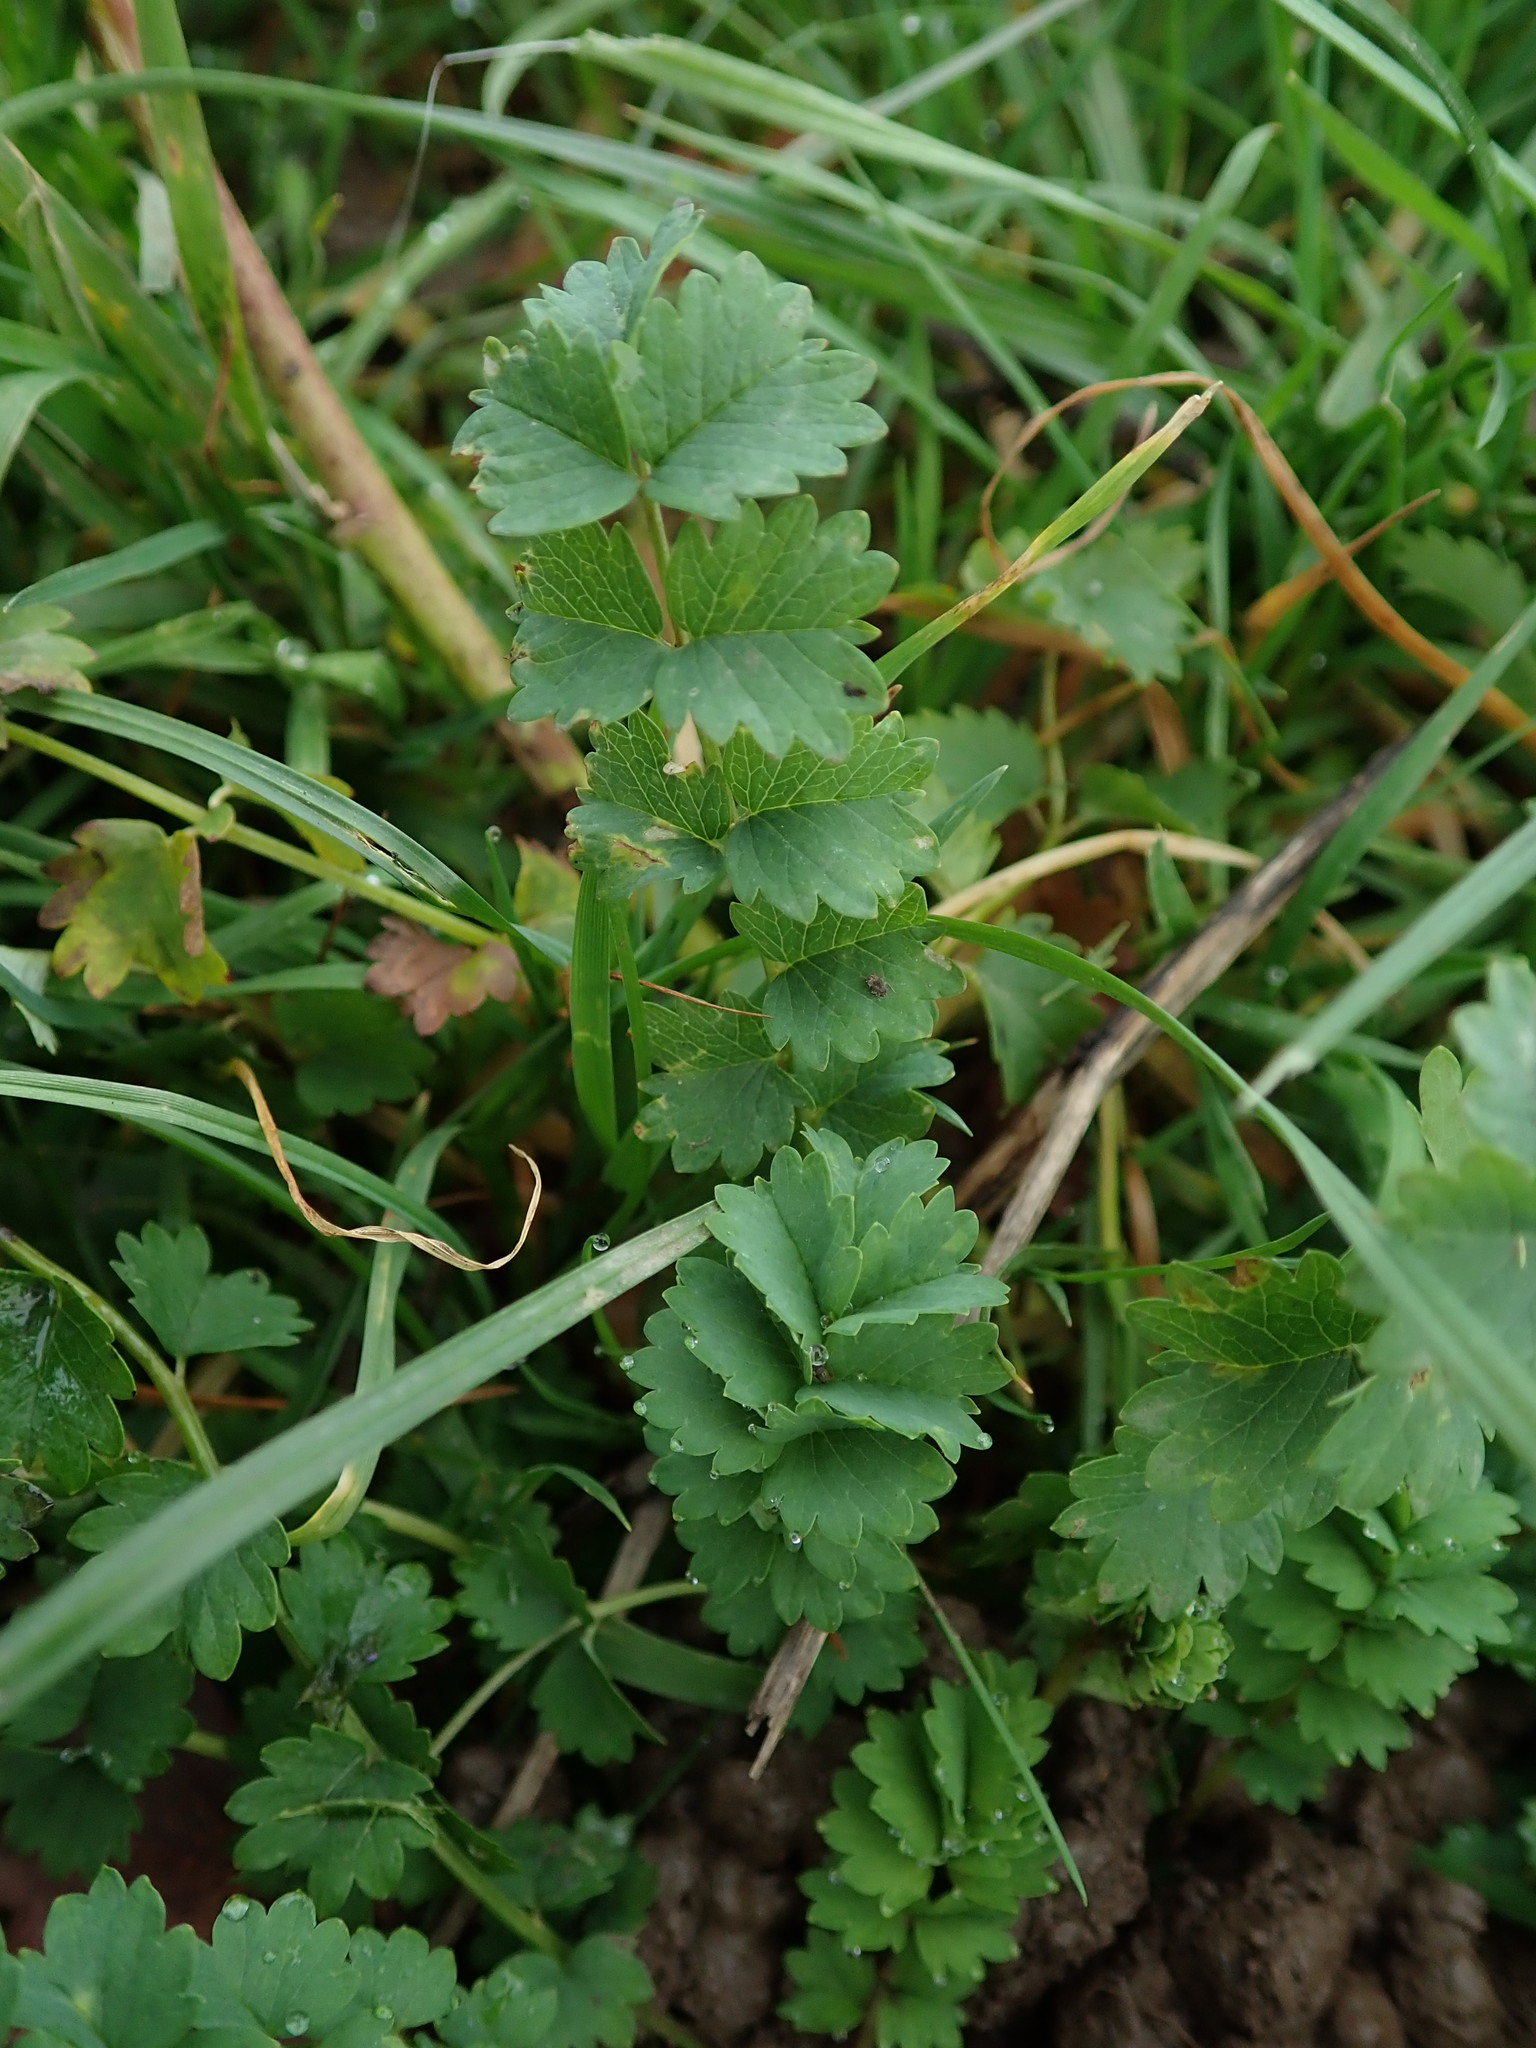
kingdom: Plantae
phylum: Tracheophyta
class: Magnoliopsida
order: Rosales
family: Rosaceae
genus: Poterium
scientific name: Poterium sanguisorba
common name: Salad burnet
